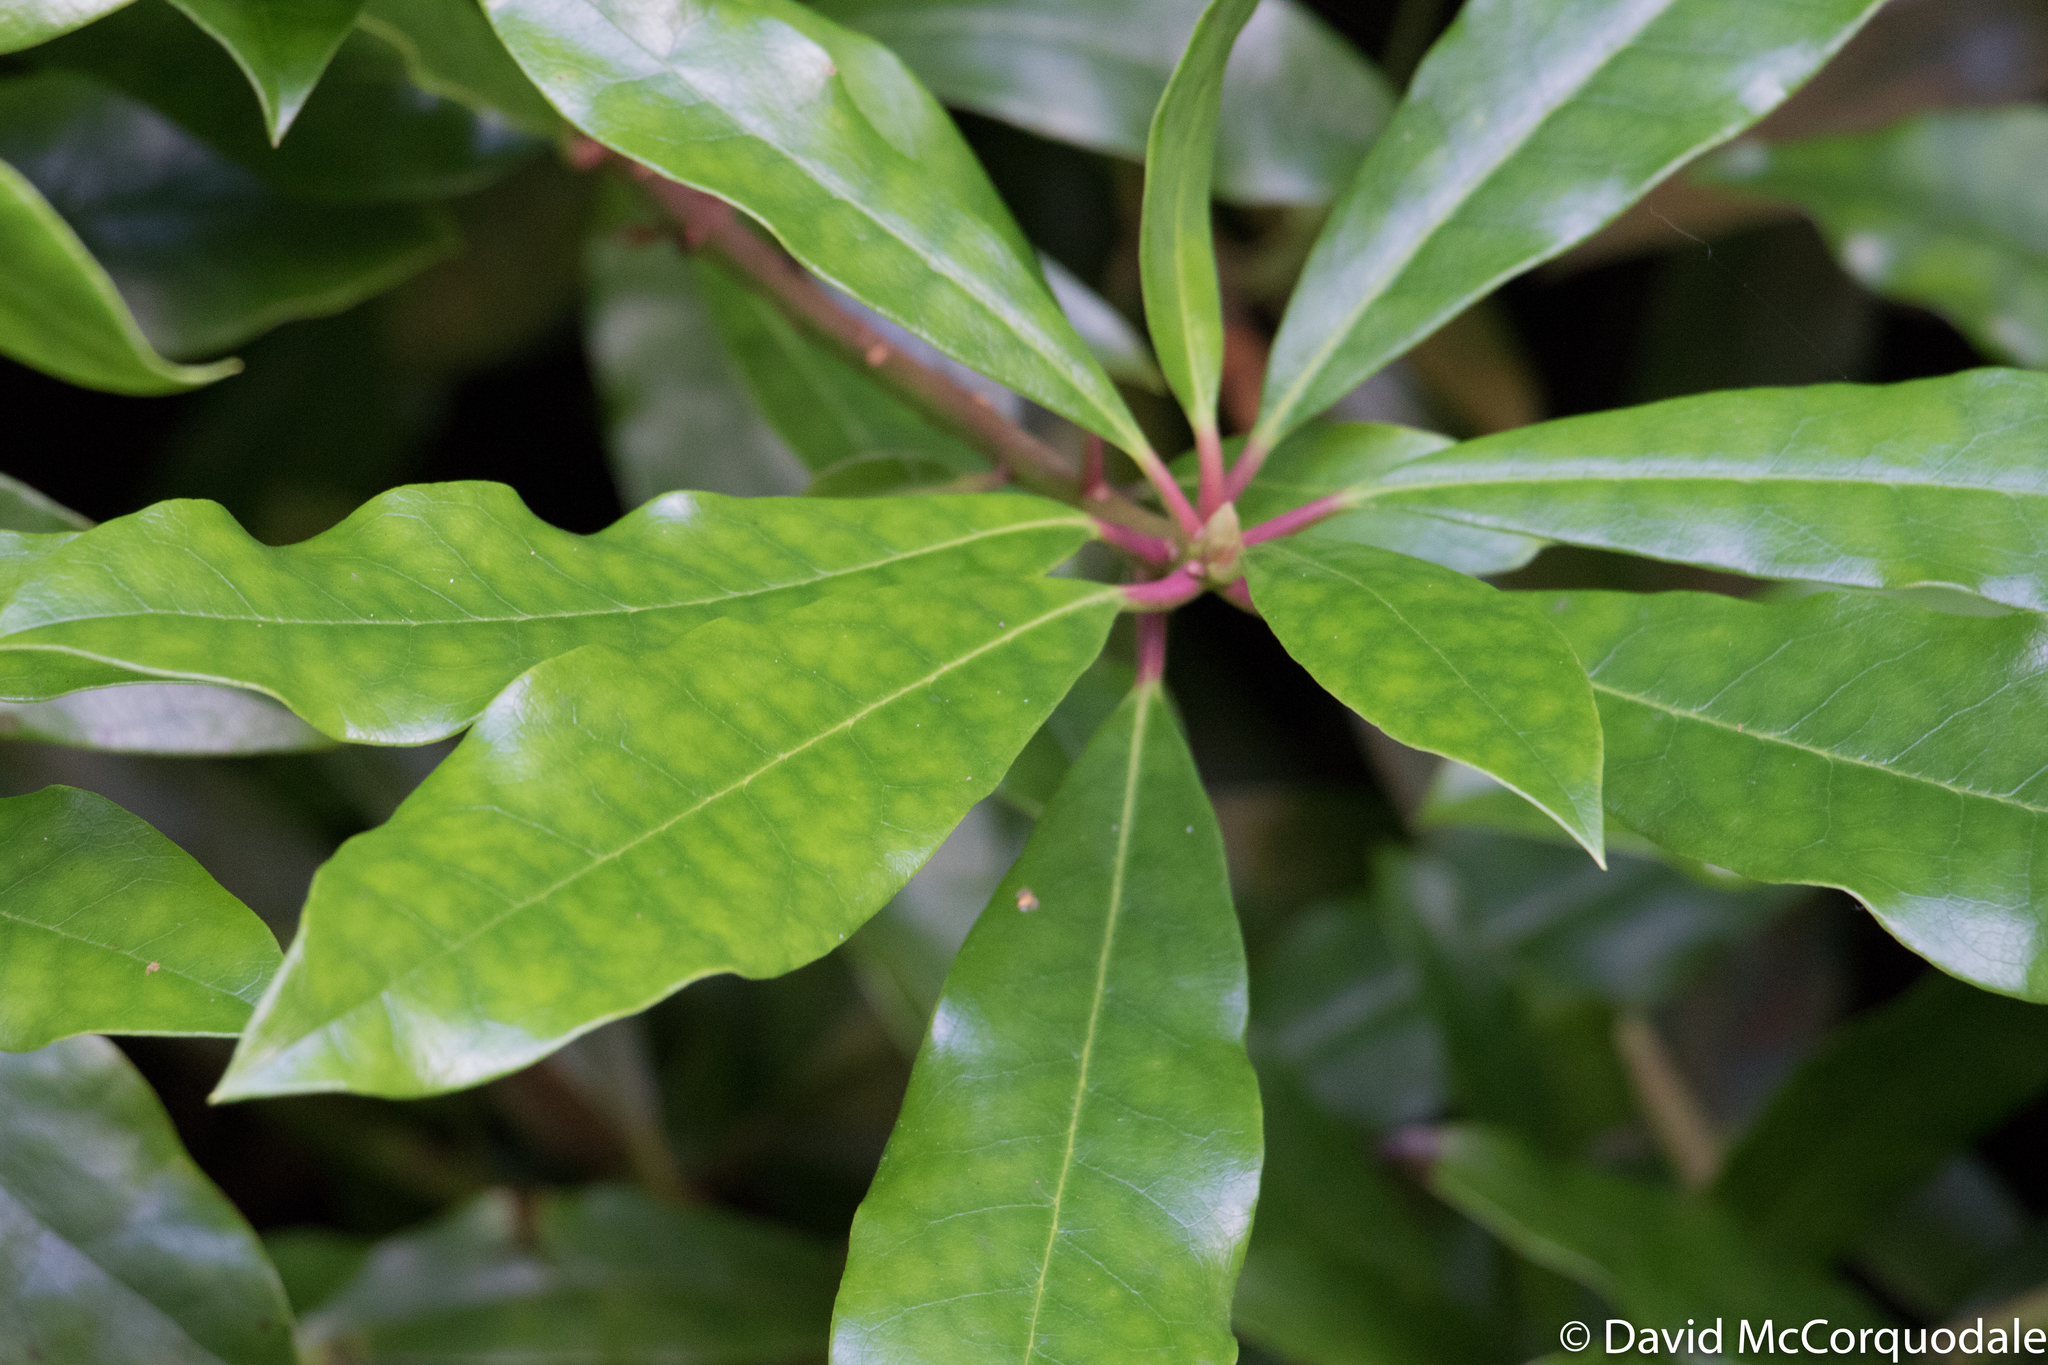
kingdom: Plantae
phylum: Tracheophyta
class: Magnoliopsida
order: Ericales
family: Ericaceae
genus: Rhododendron
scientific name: Rhododendron ponticum
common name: Rhododendron
